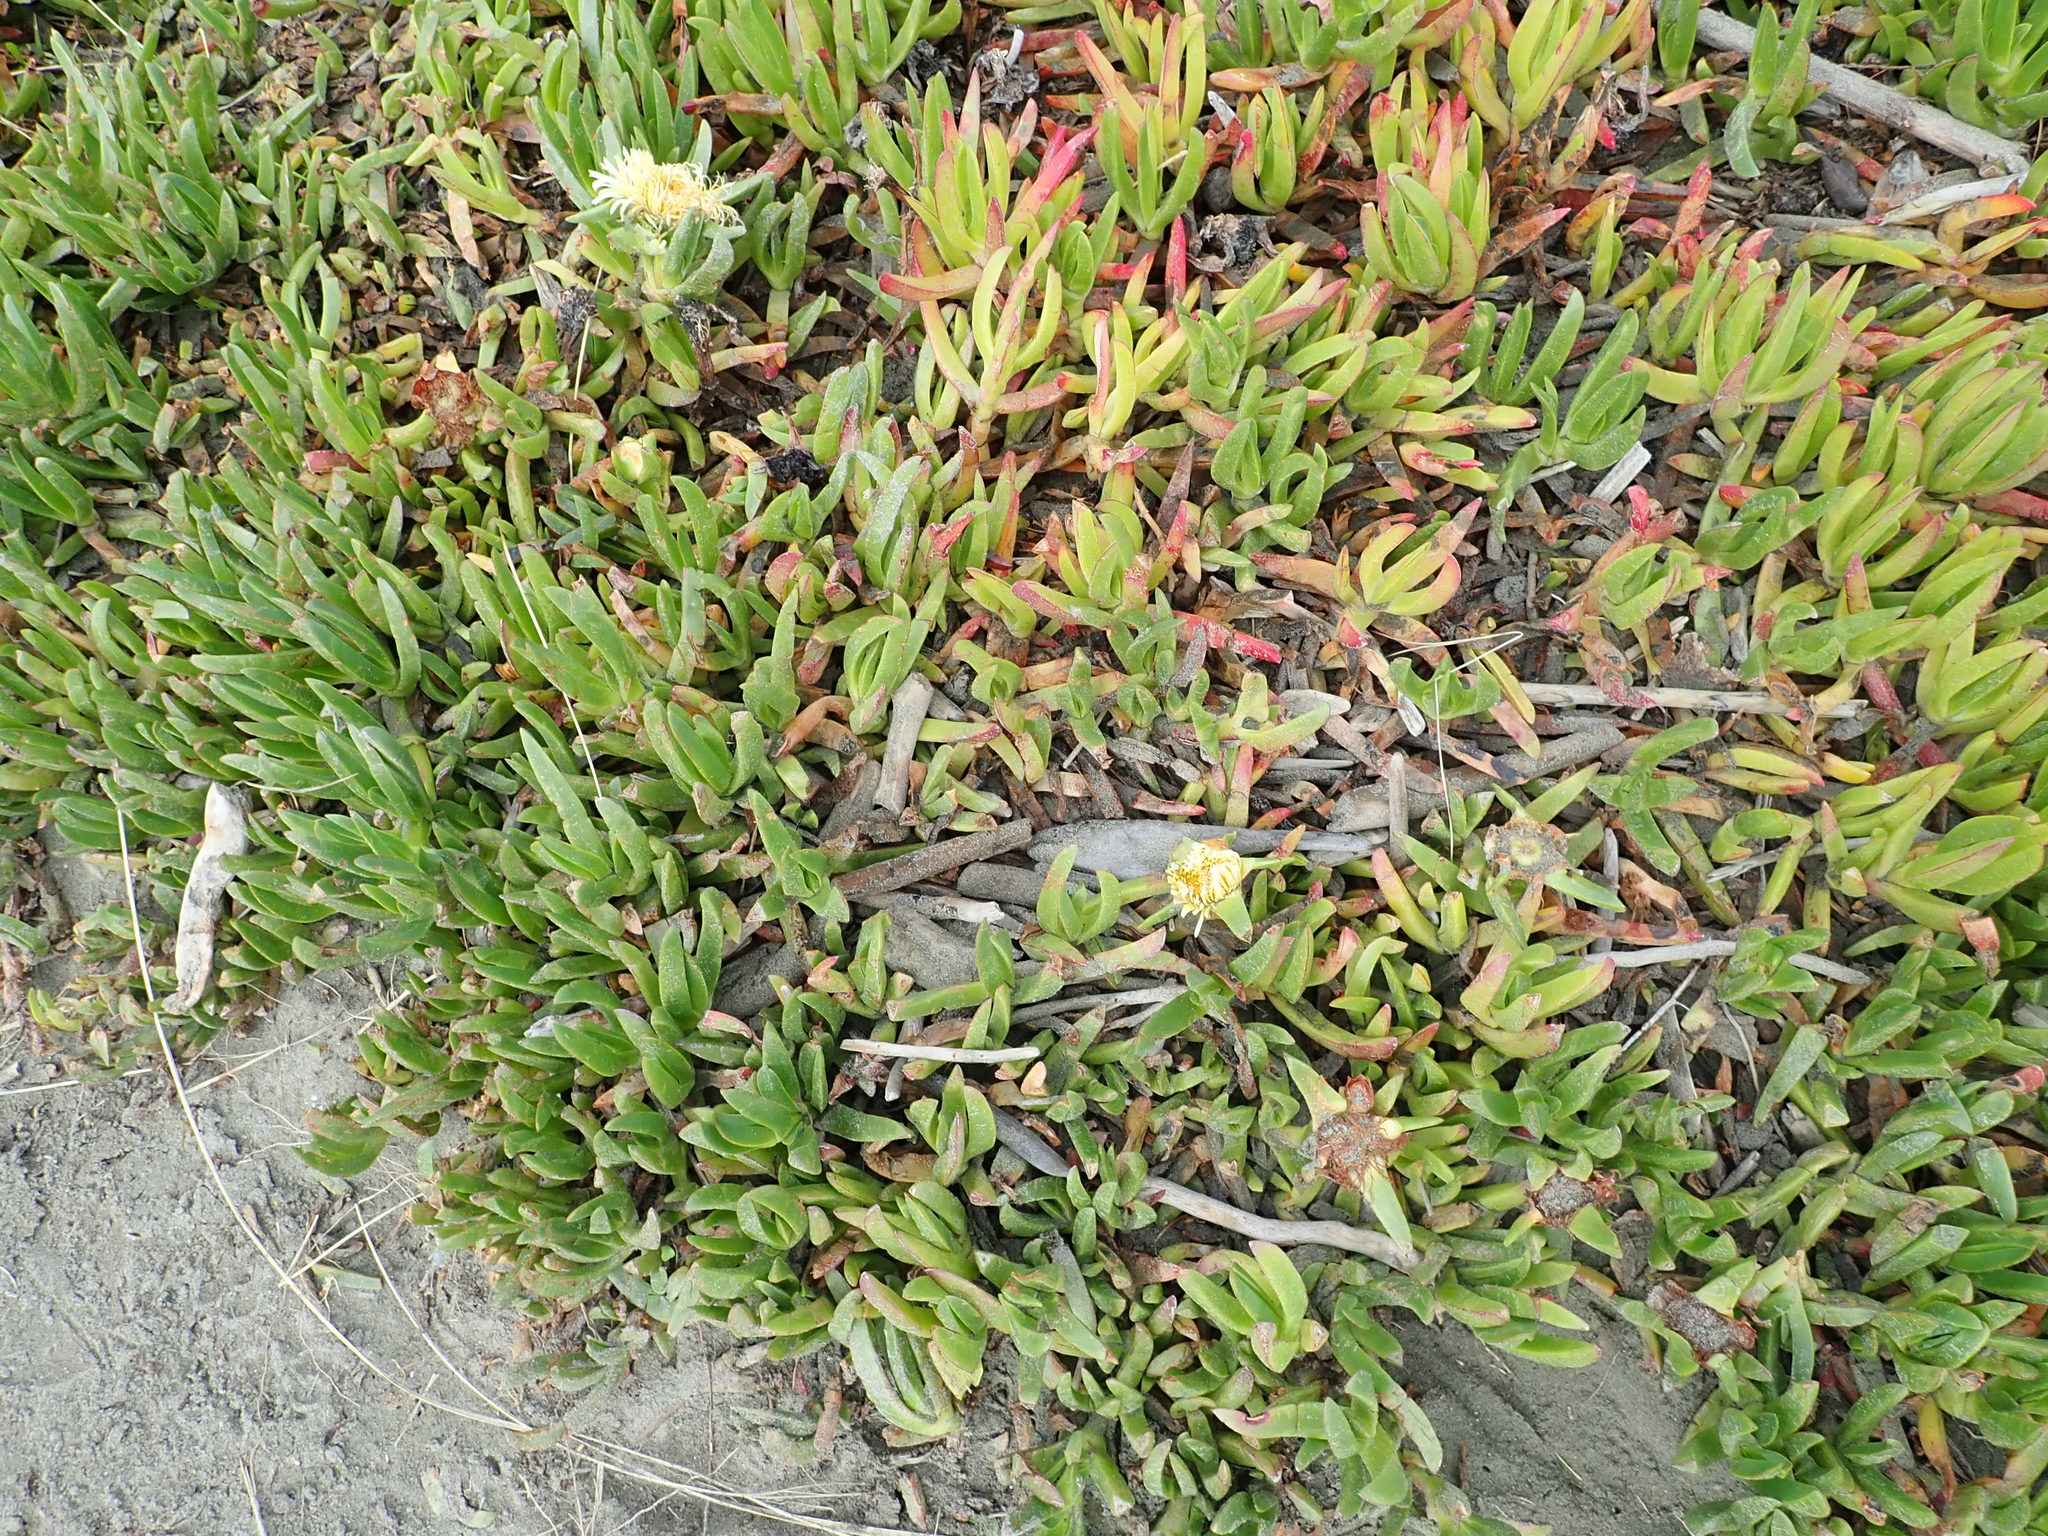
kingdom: Plantae
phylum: Tracheophyta
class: Magnoliopsida
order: Caryophyllales
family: Aizoaceae
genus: Carpobrotus
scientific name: Carpobrotus edulis
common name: Hottentot-fig
